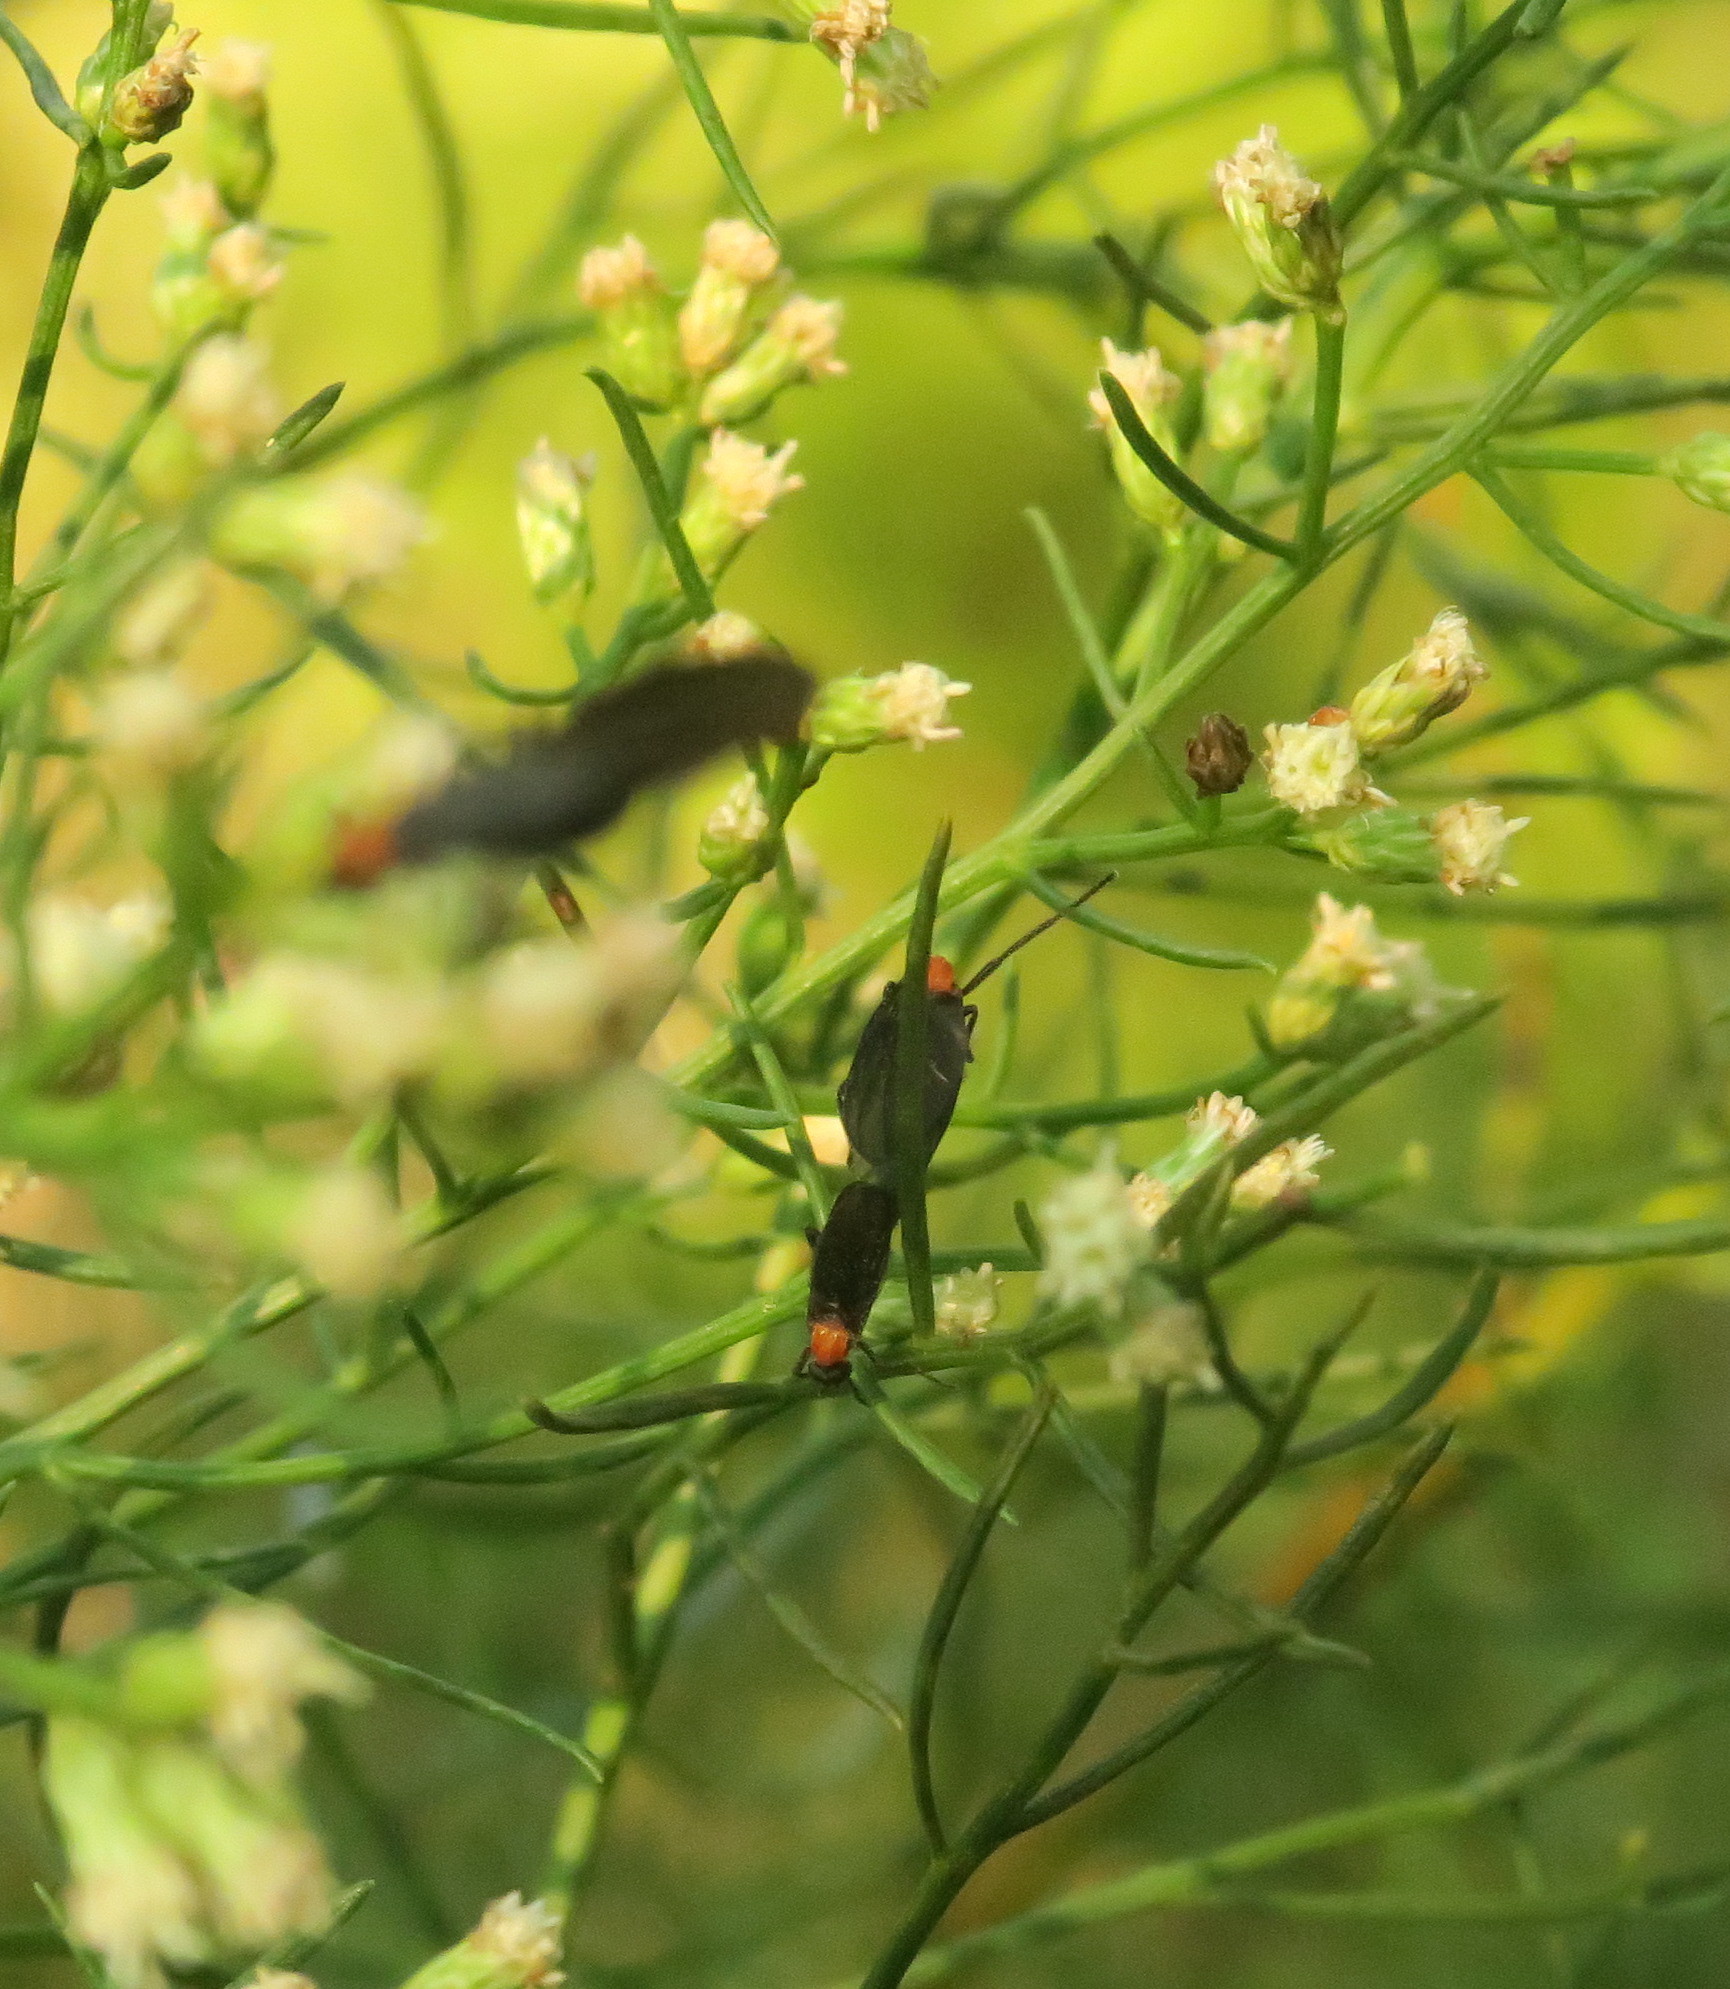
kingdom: Animalia
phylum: Arthropoda
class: Insecta
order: Diptera
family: Bibionidae
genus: Plecia
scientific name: Plecia nearctica
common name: March fly
